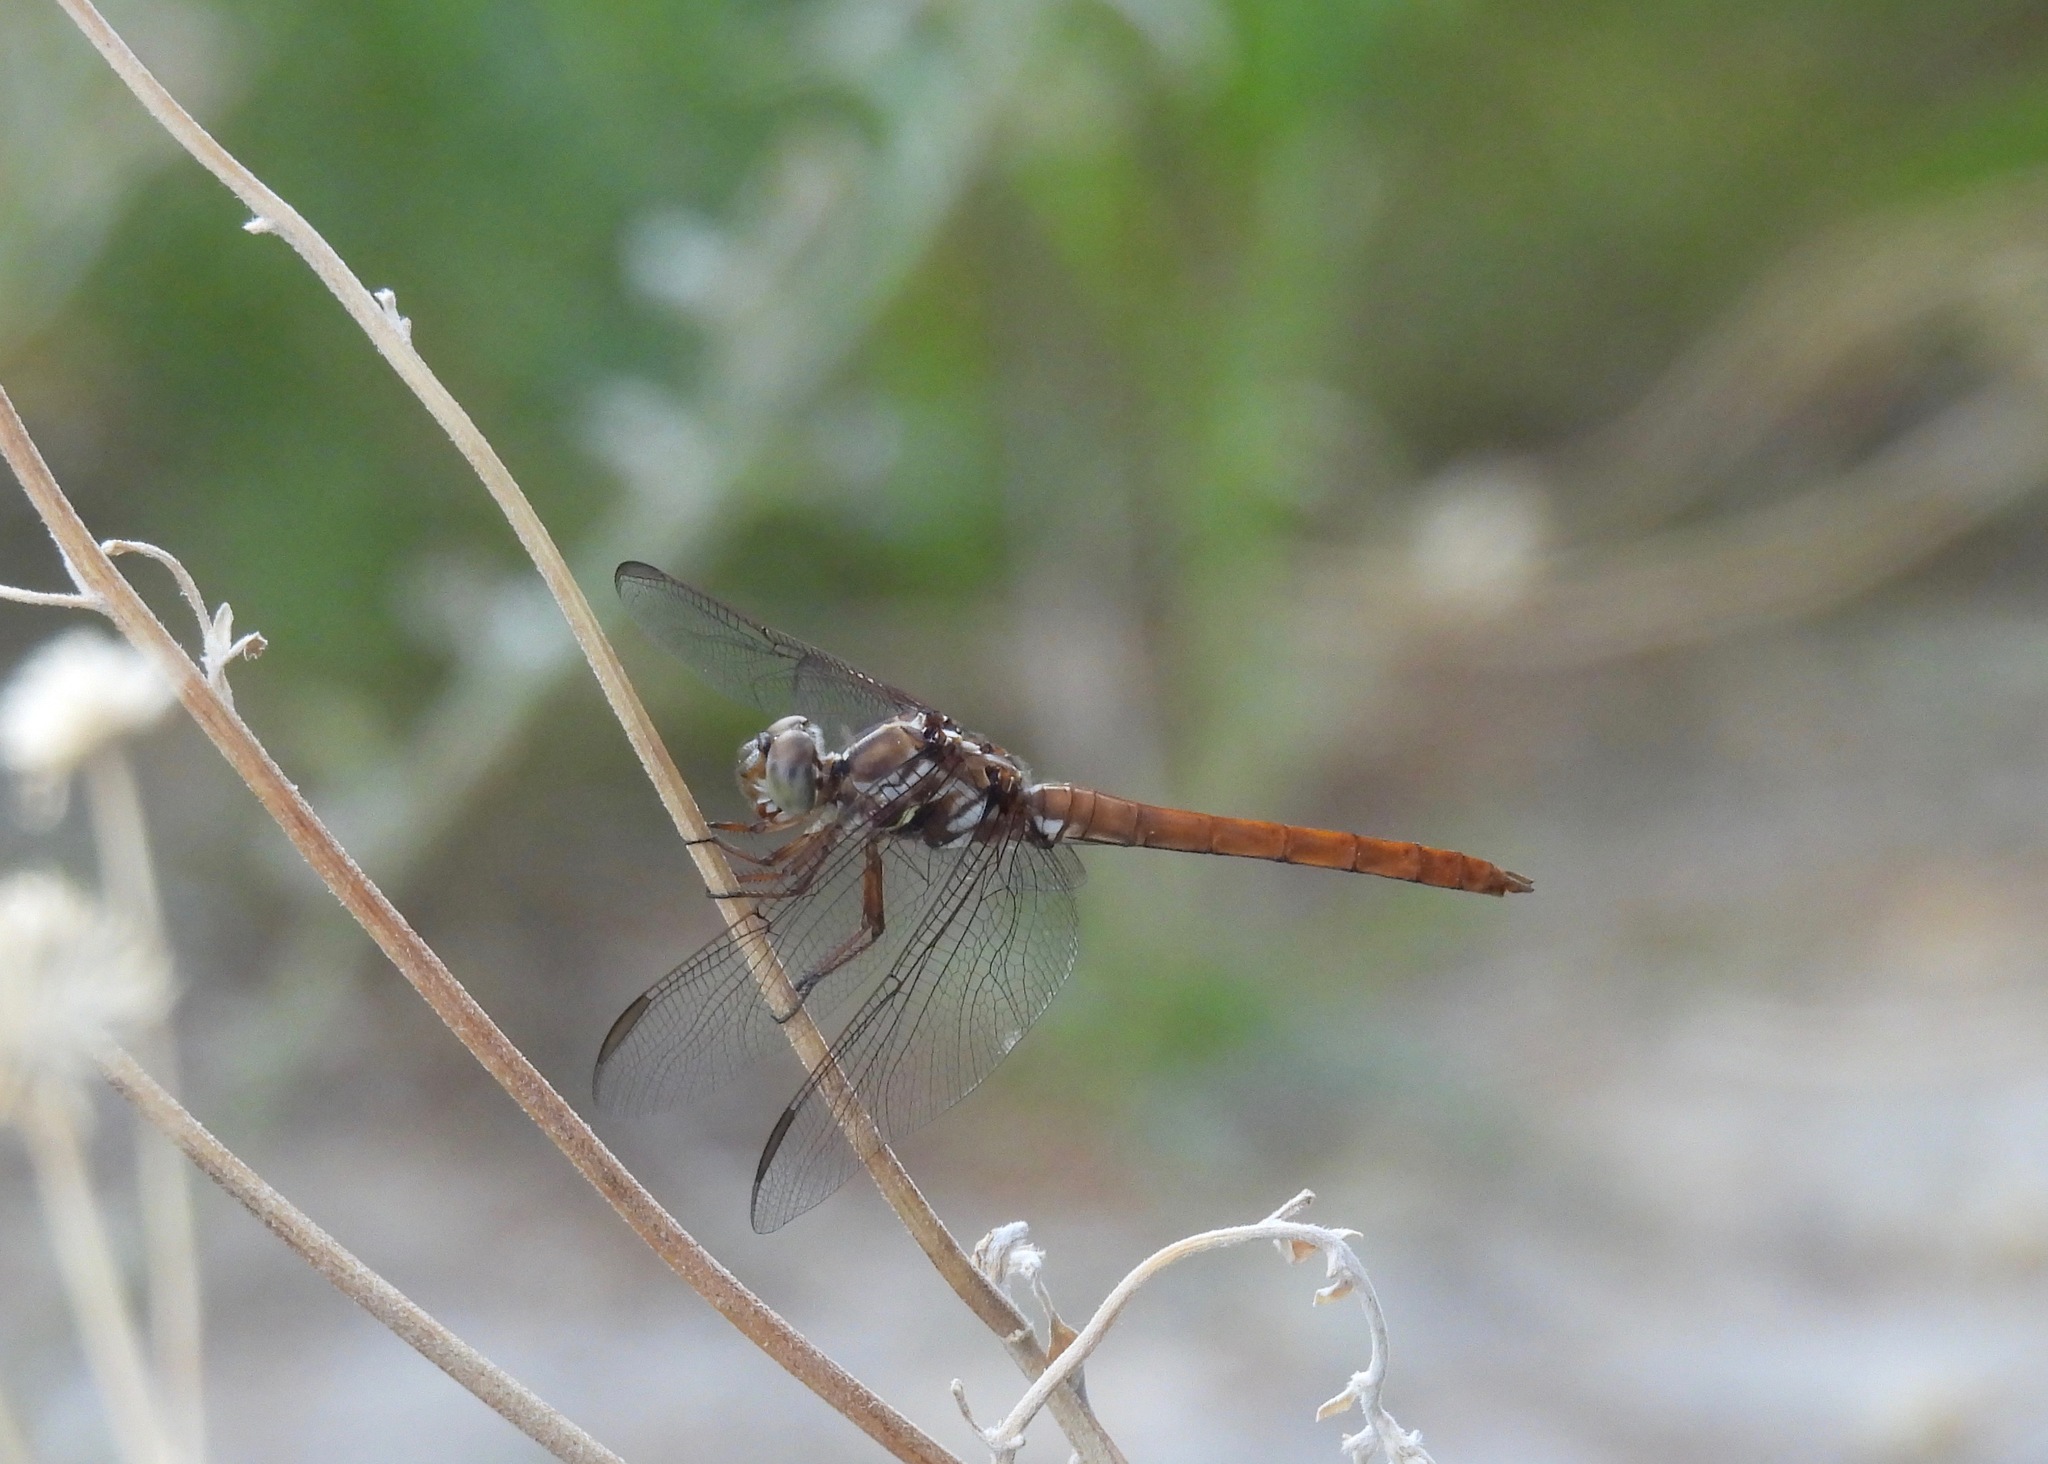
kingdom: Animalia
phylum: Arthropoda
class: Insecta
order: Odonata
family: Libellulidae
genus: Orthemis
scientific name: Orthemis ferruginea
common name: Roseate skimmer
